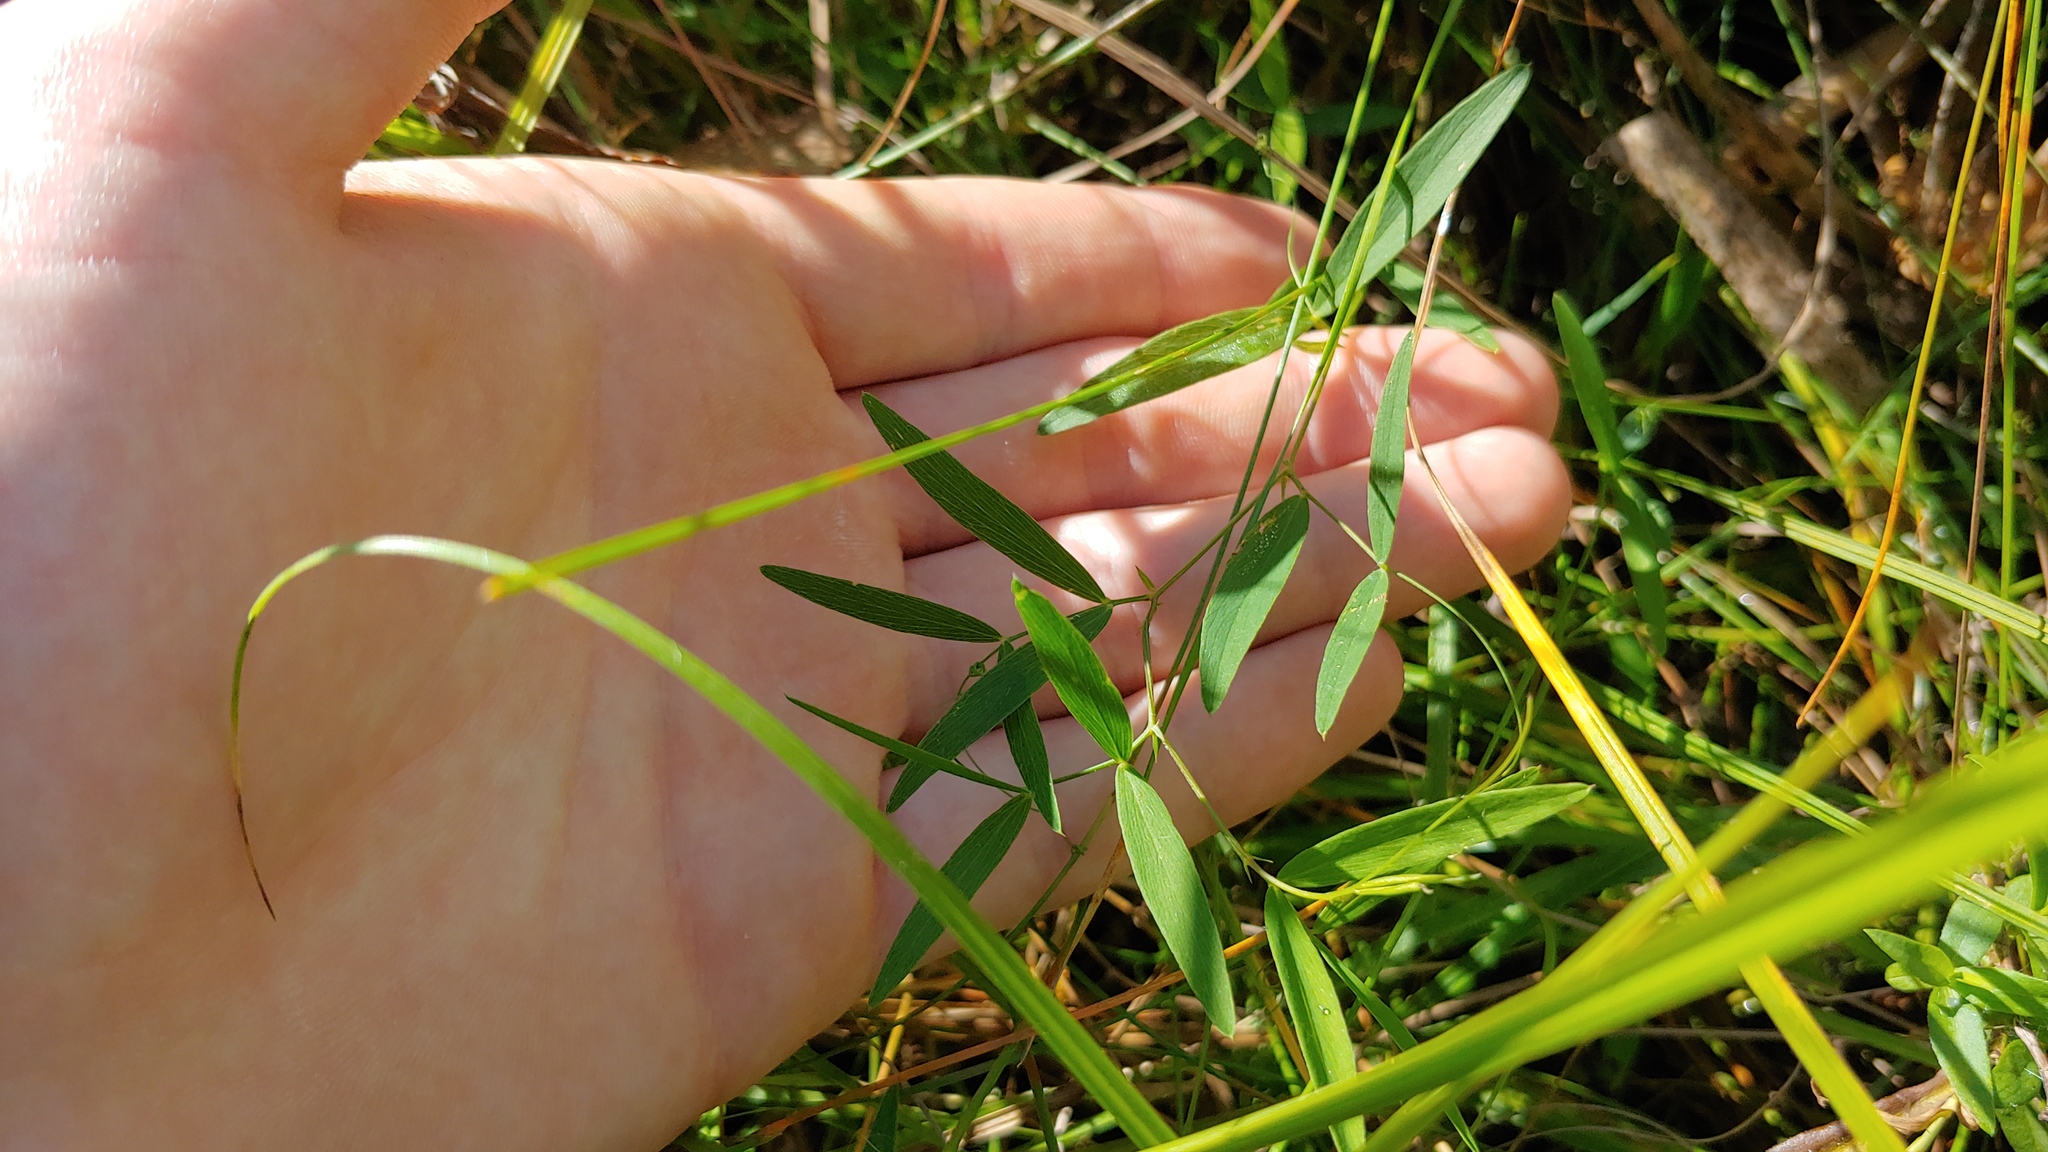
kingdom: Plantae
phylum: Tracheophyta
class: Magnoliopsida
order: Fabales
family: Fabaceae
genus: Lathyrus
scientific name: Lathyrus palustris
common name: Marsh pea
